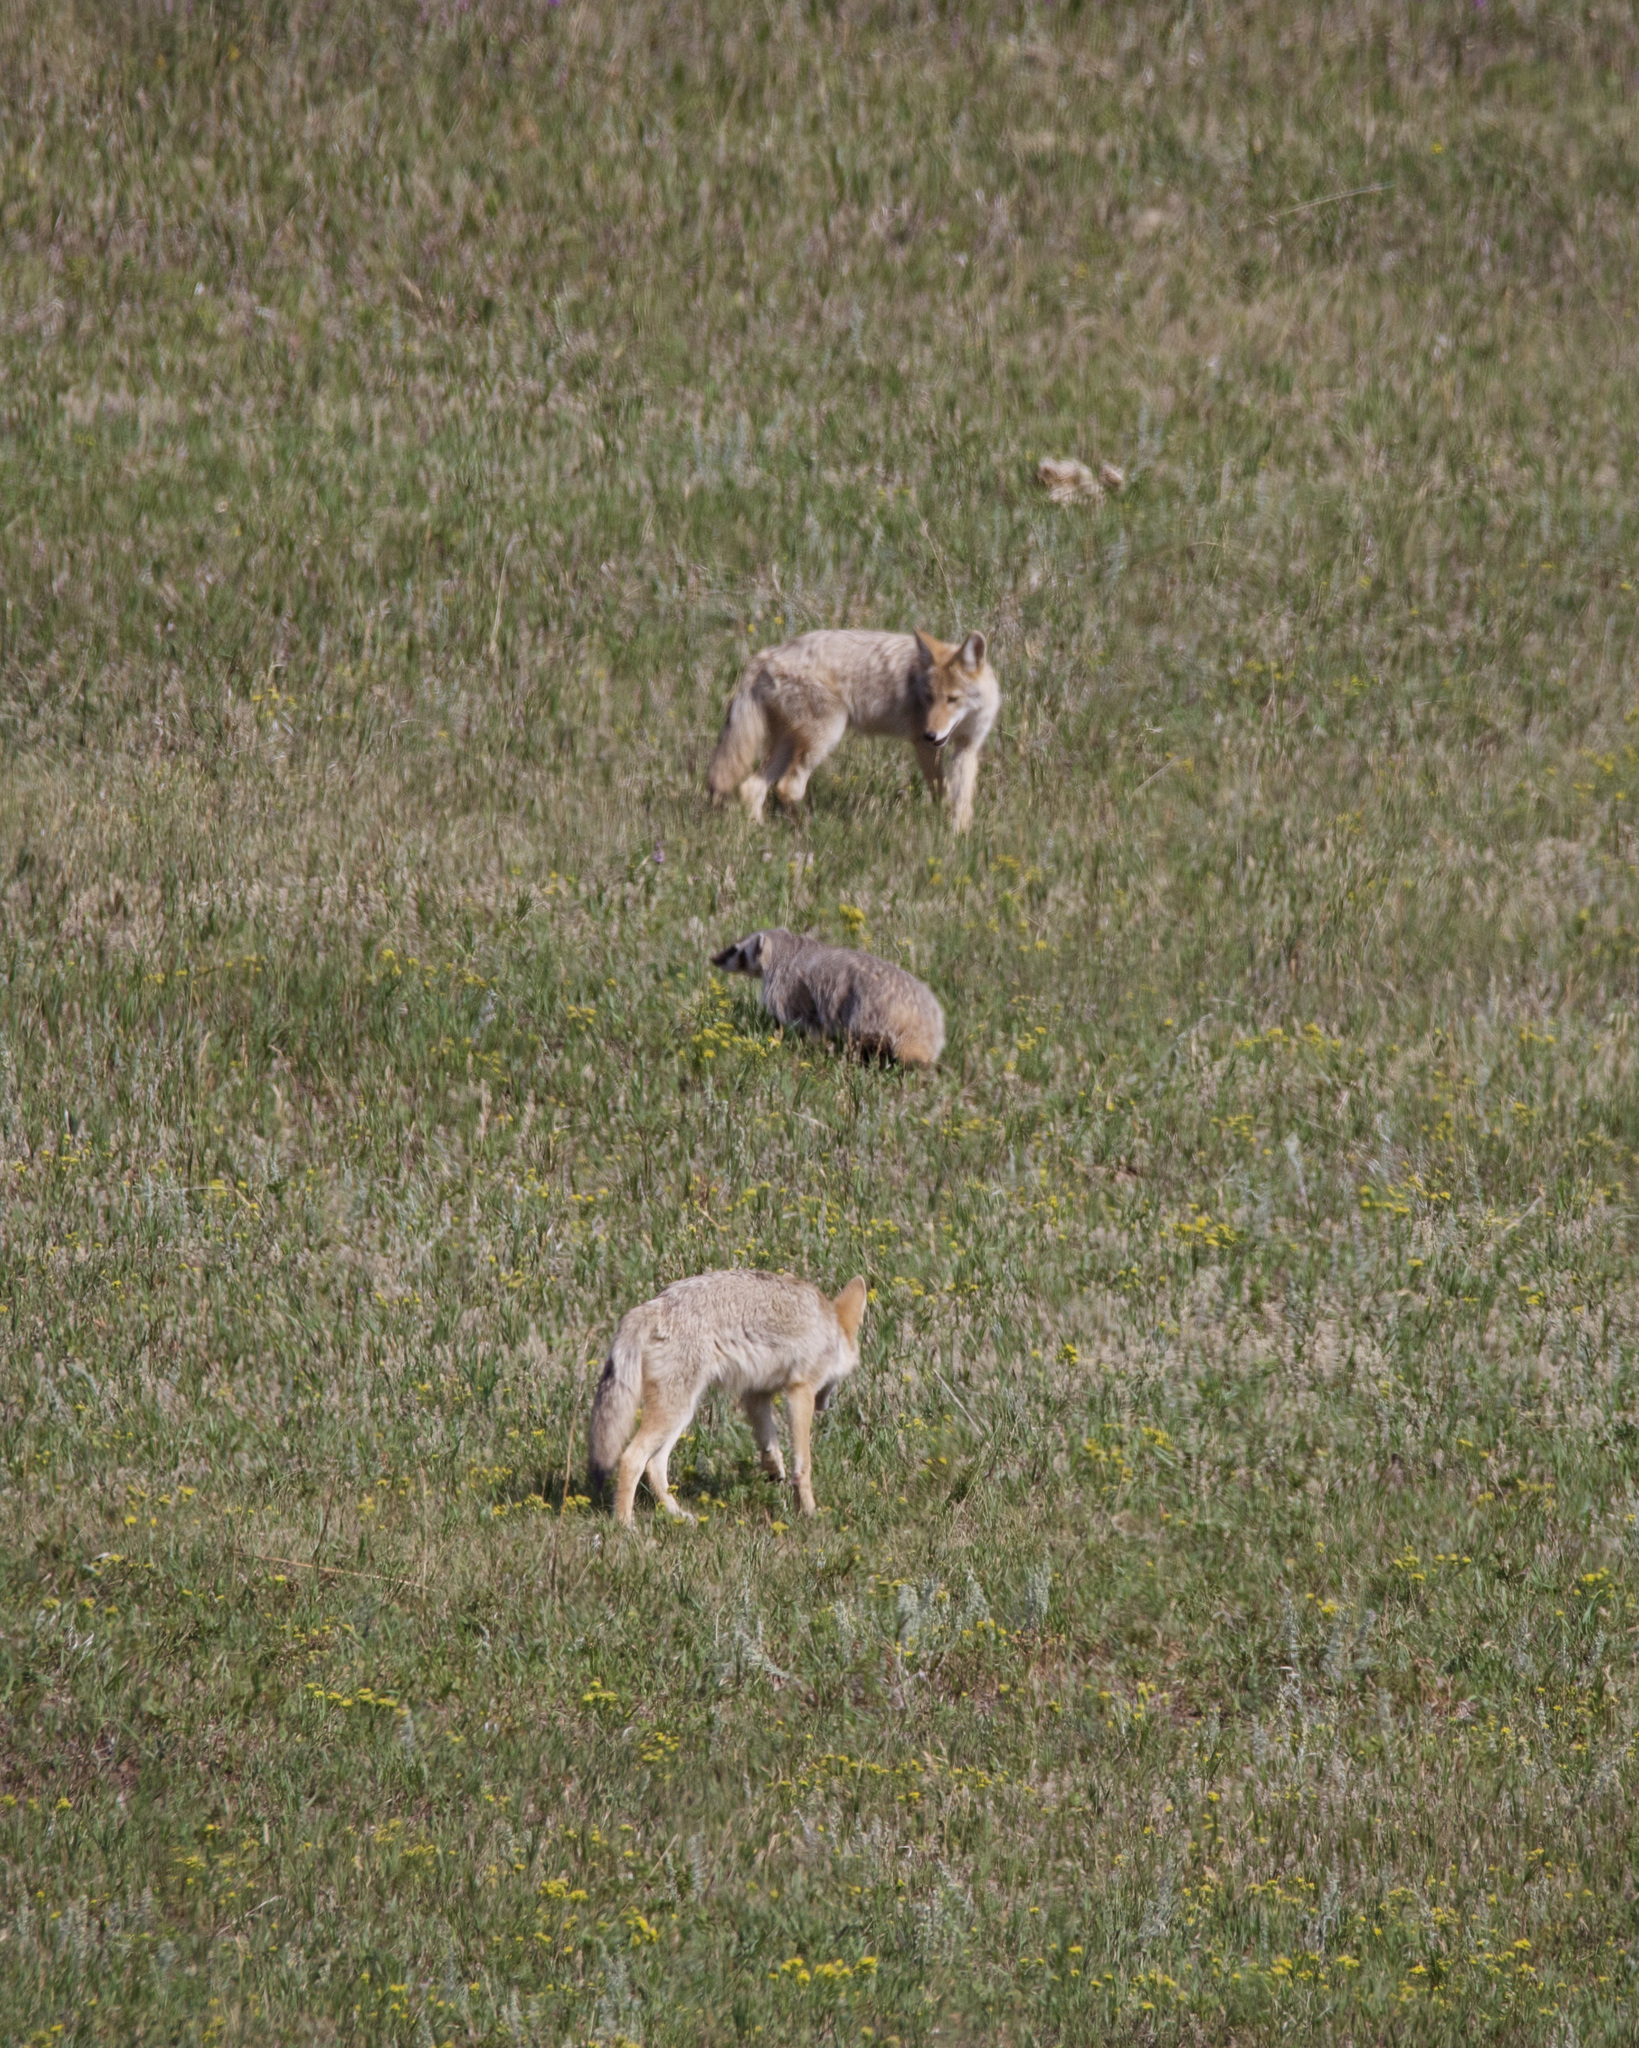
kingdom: Animalia
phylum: Chordata
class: Mammalia
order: Carnivora
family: Canidae
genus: Canis
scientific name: Canis latrans
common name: Coyote
